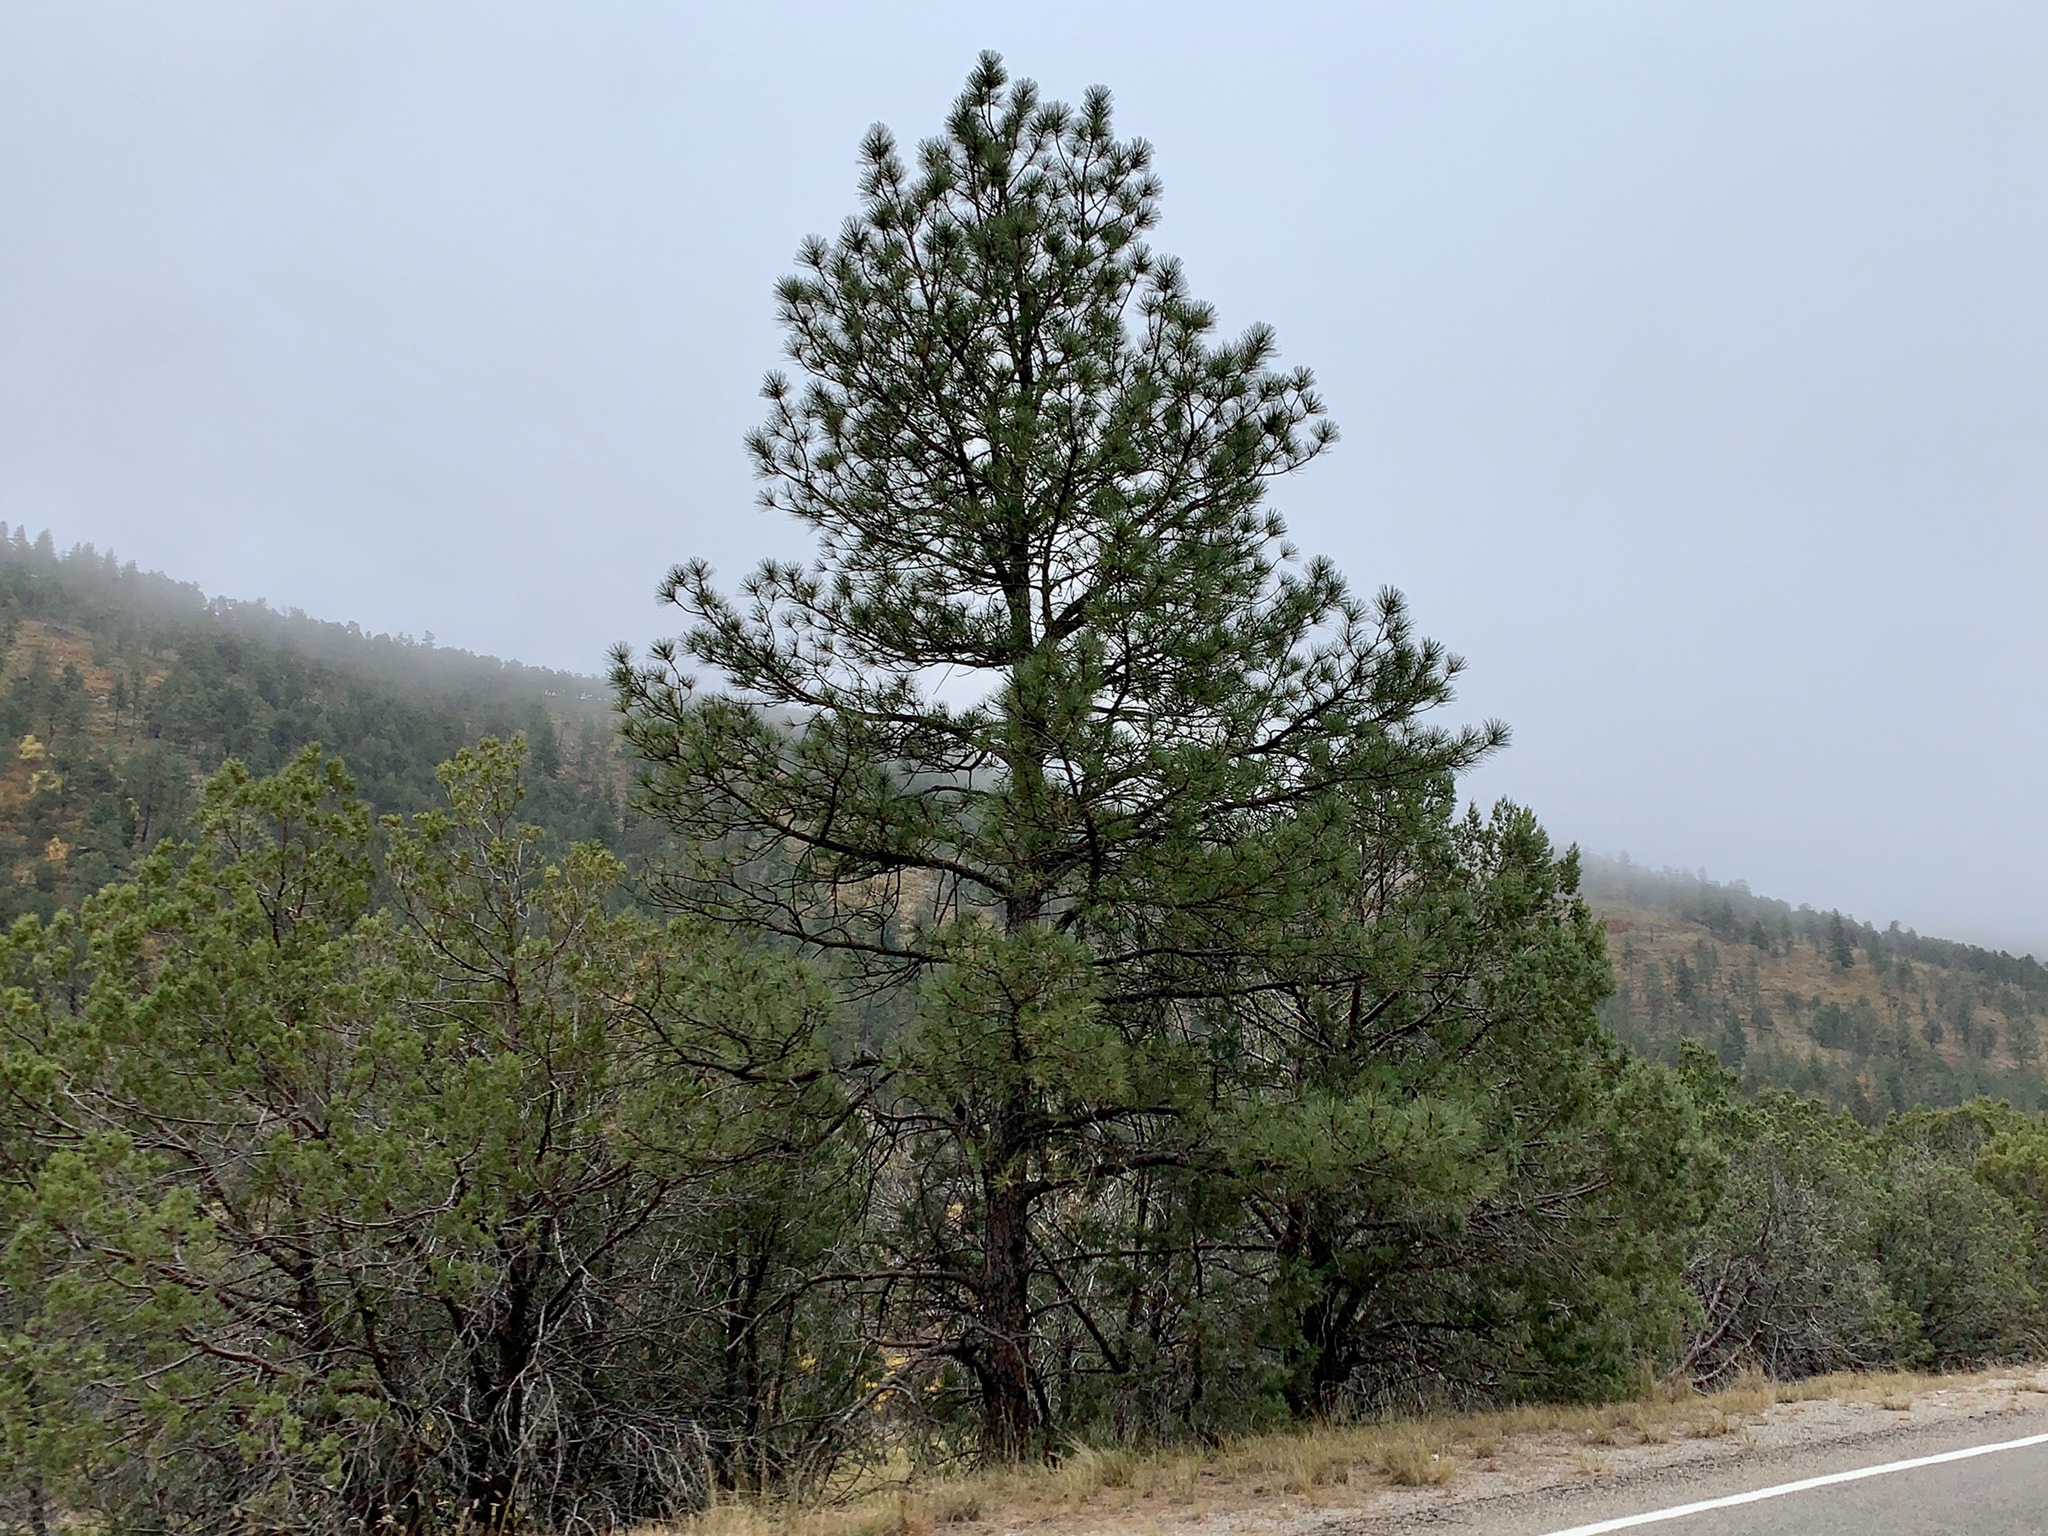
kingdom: Plantae
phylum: Tracheophyta
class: Pinopsida
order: Pinales
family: Pinaceae
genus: Pinus
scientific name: Pinus ponderosa
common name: Western yellow-pine
